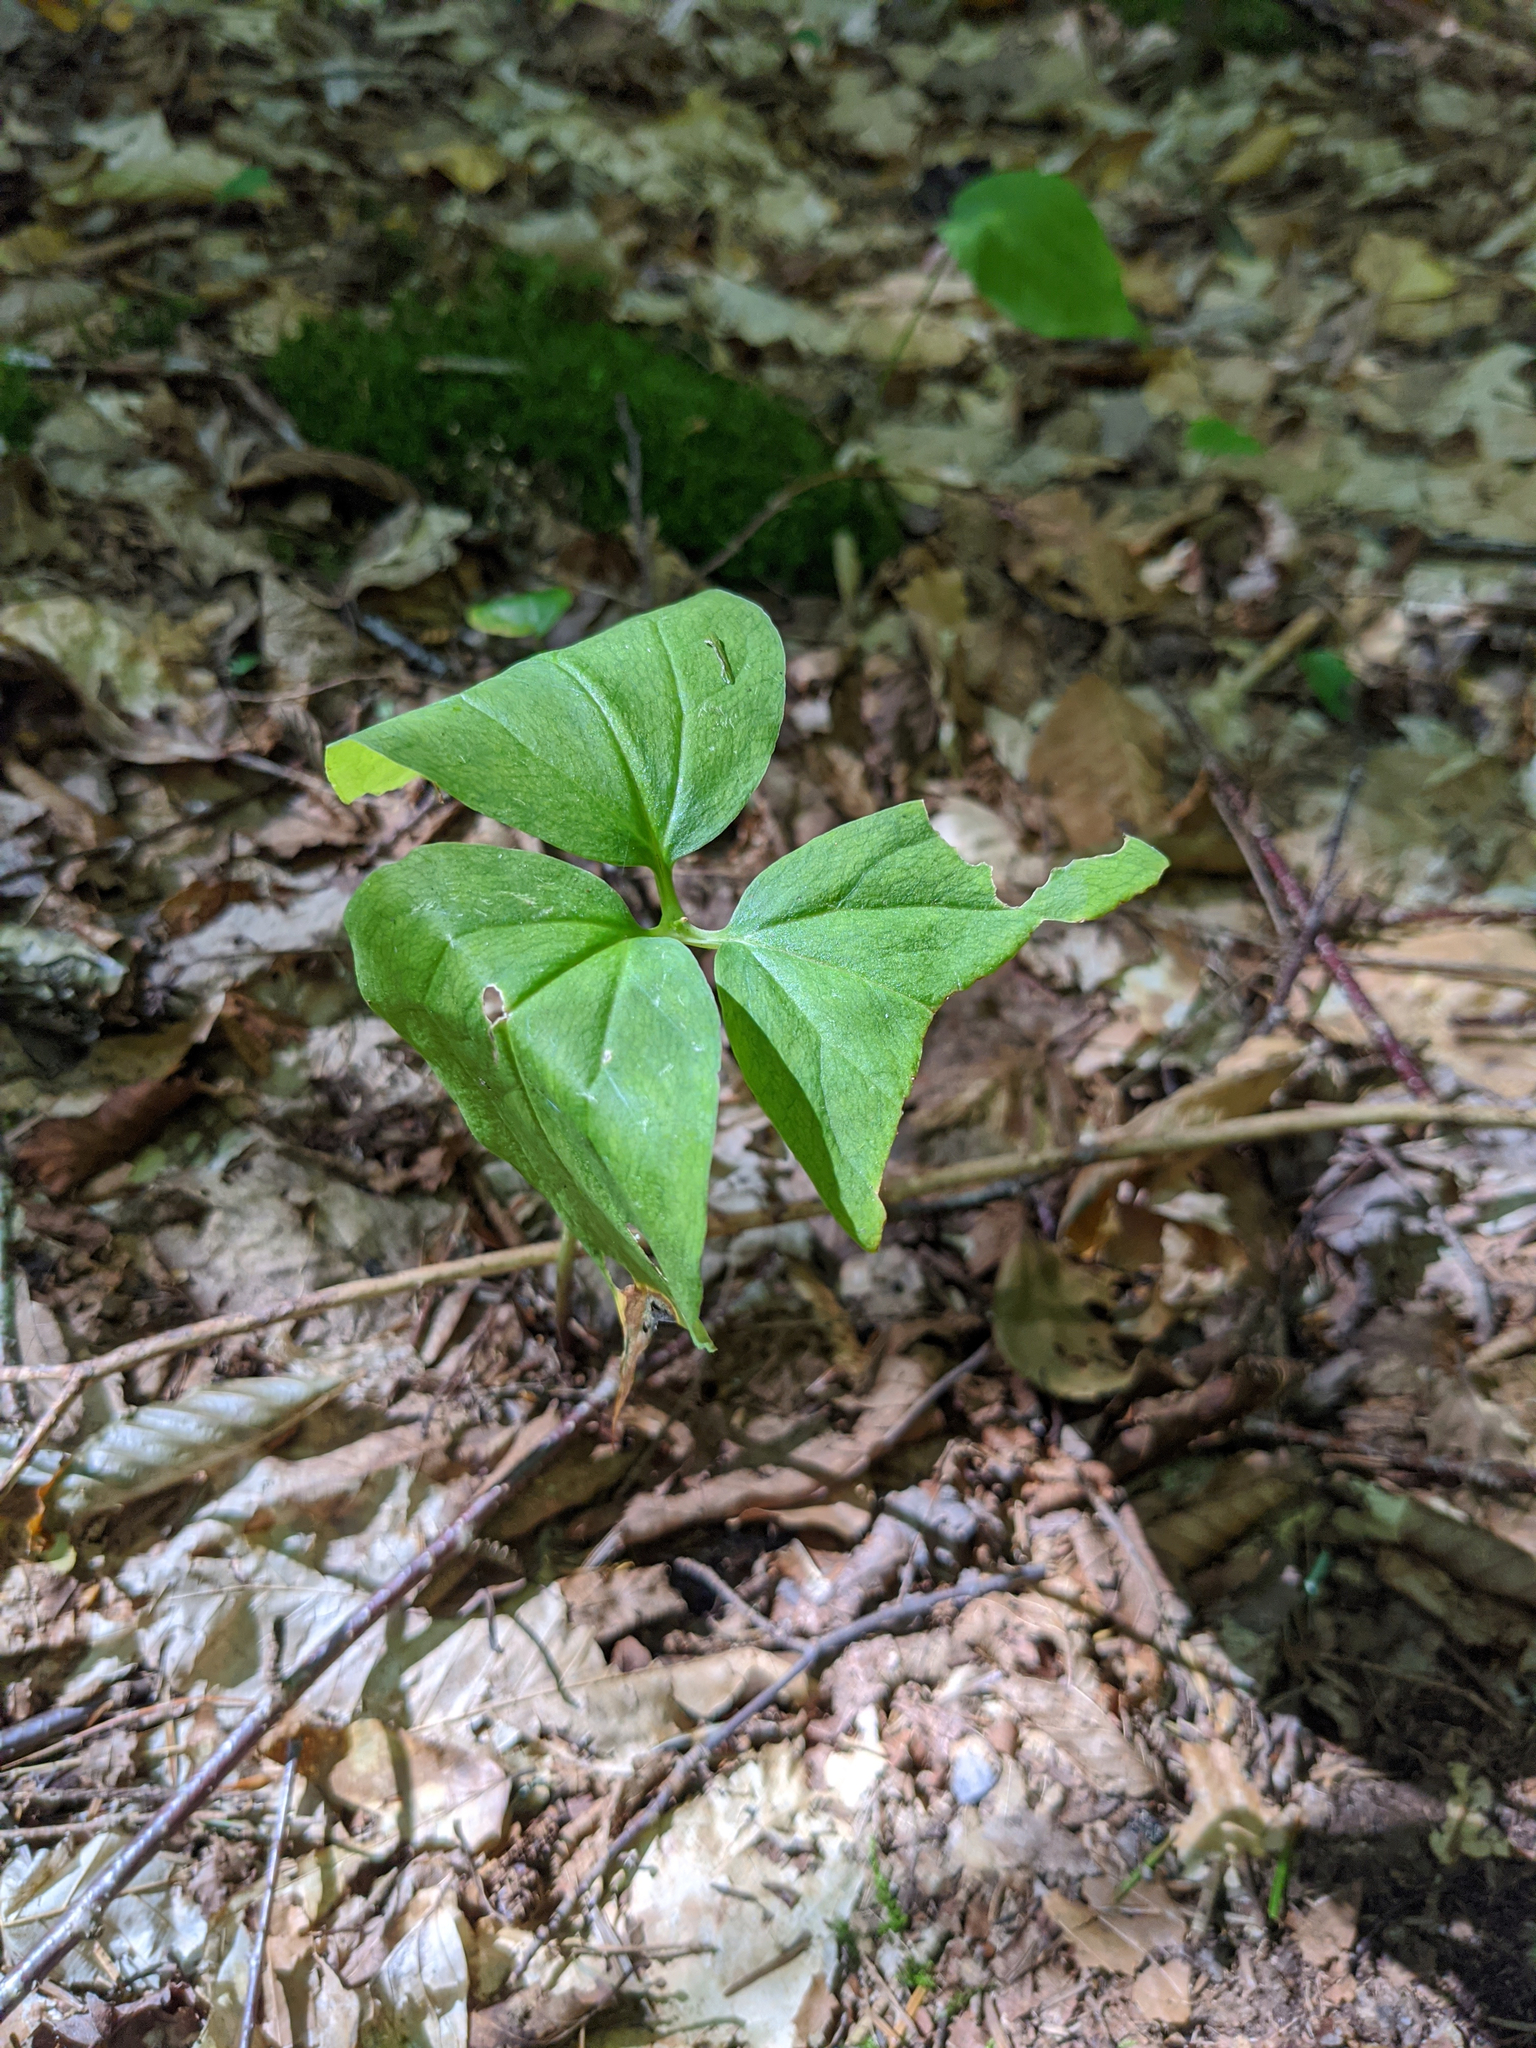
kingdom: Plantae
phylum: Tracheophyta
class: Liliopsida
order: Liliales
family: Melanthiaceae
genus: Trillium
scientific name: Trillium undulatum
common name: Paint trillium
